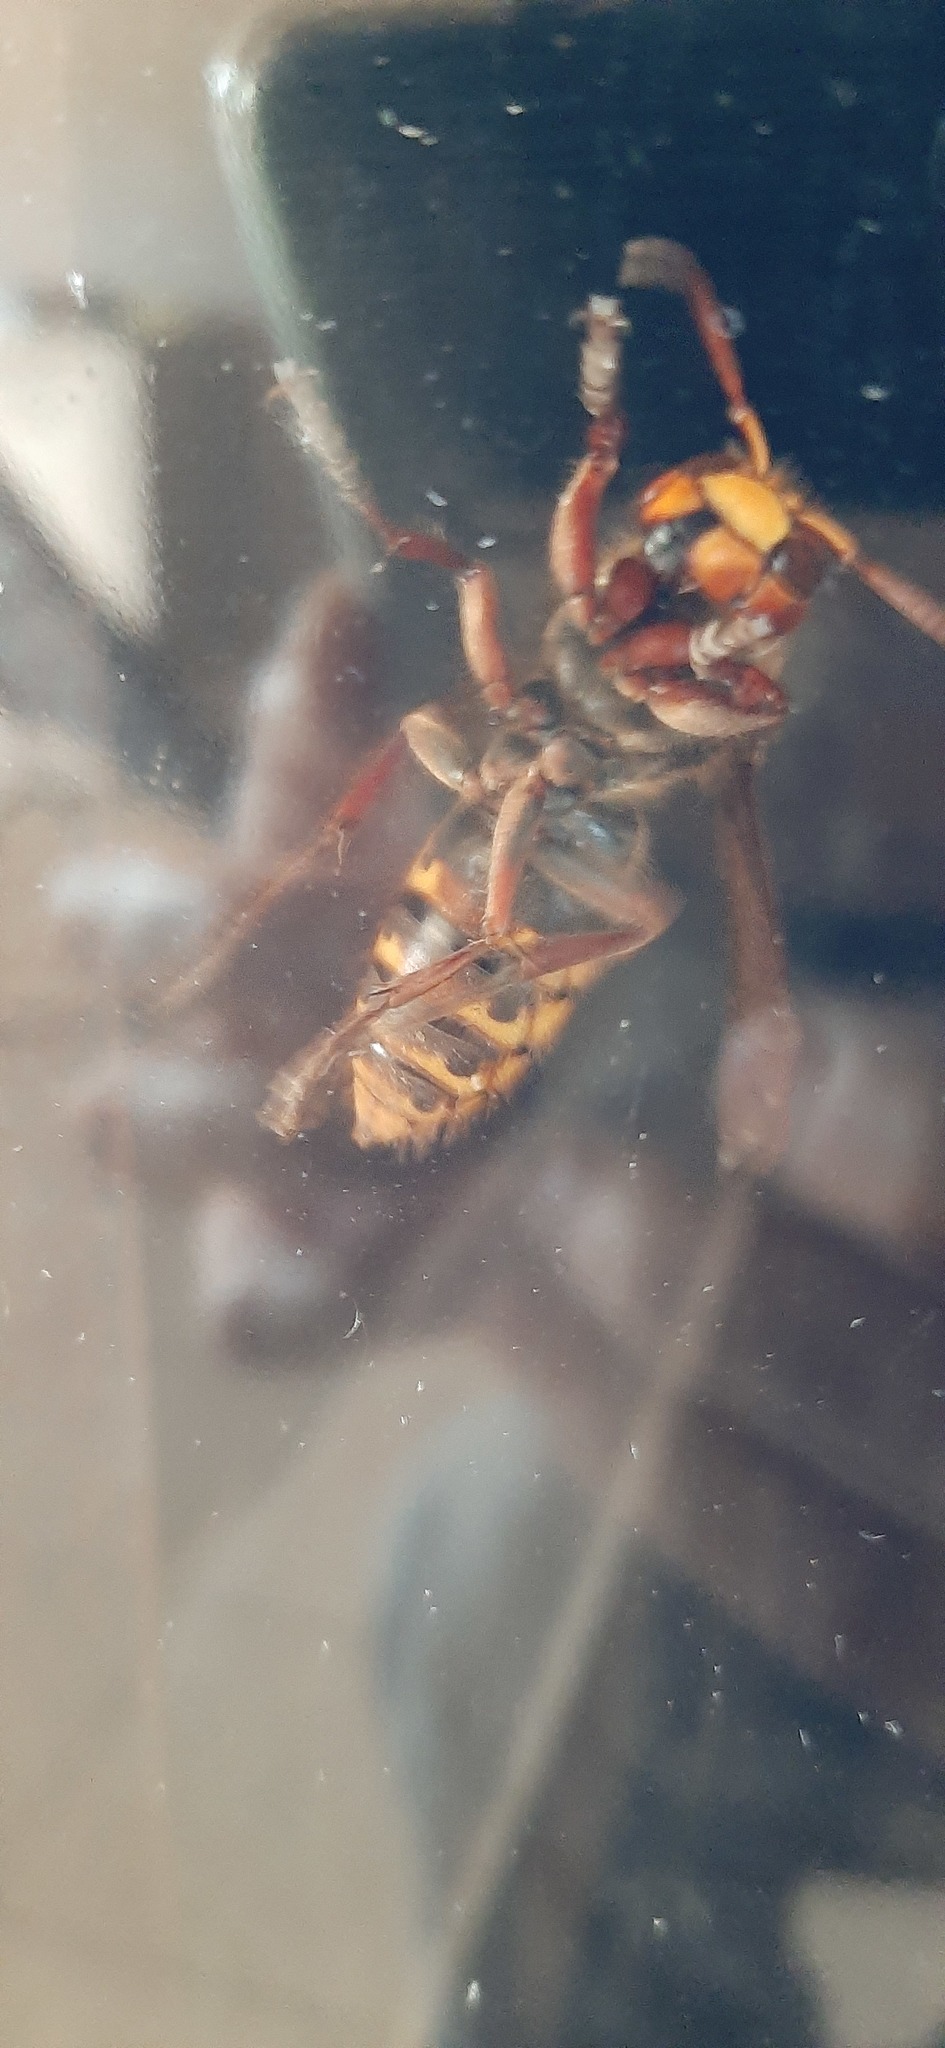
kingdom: Animalia
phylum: Arthropoda
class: Insecta
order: Hymenoptera
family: Vespidae
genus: Vespa
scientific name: Vespa crabro
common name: Hornet
